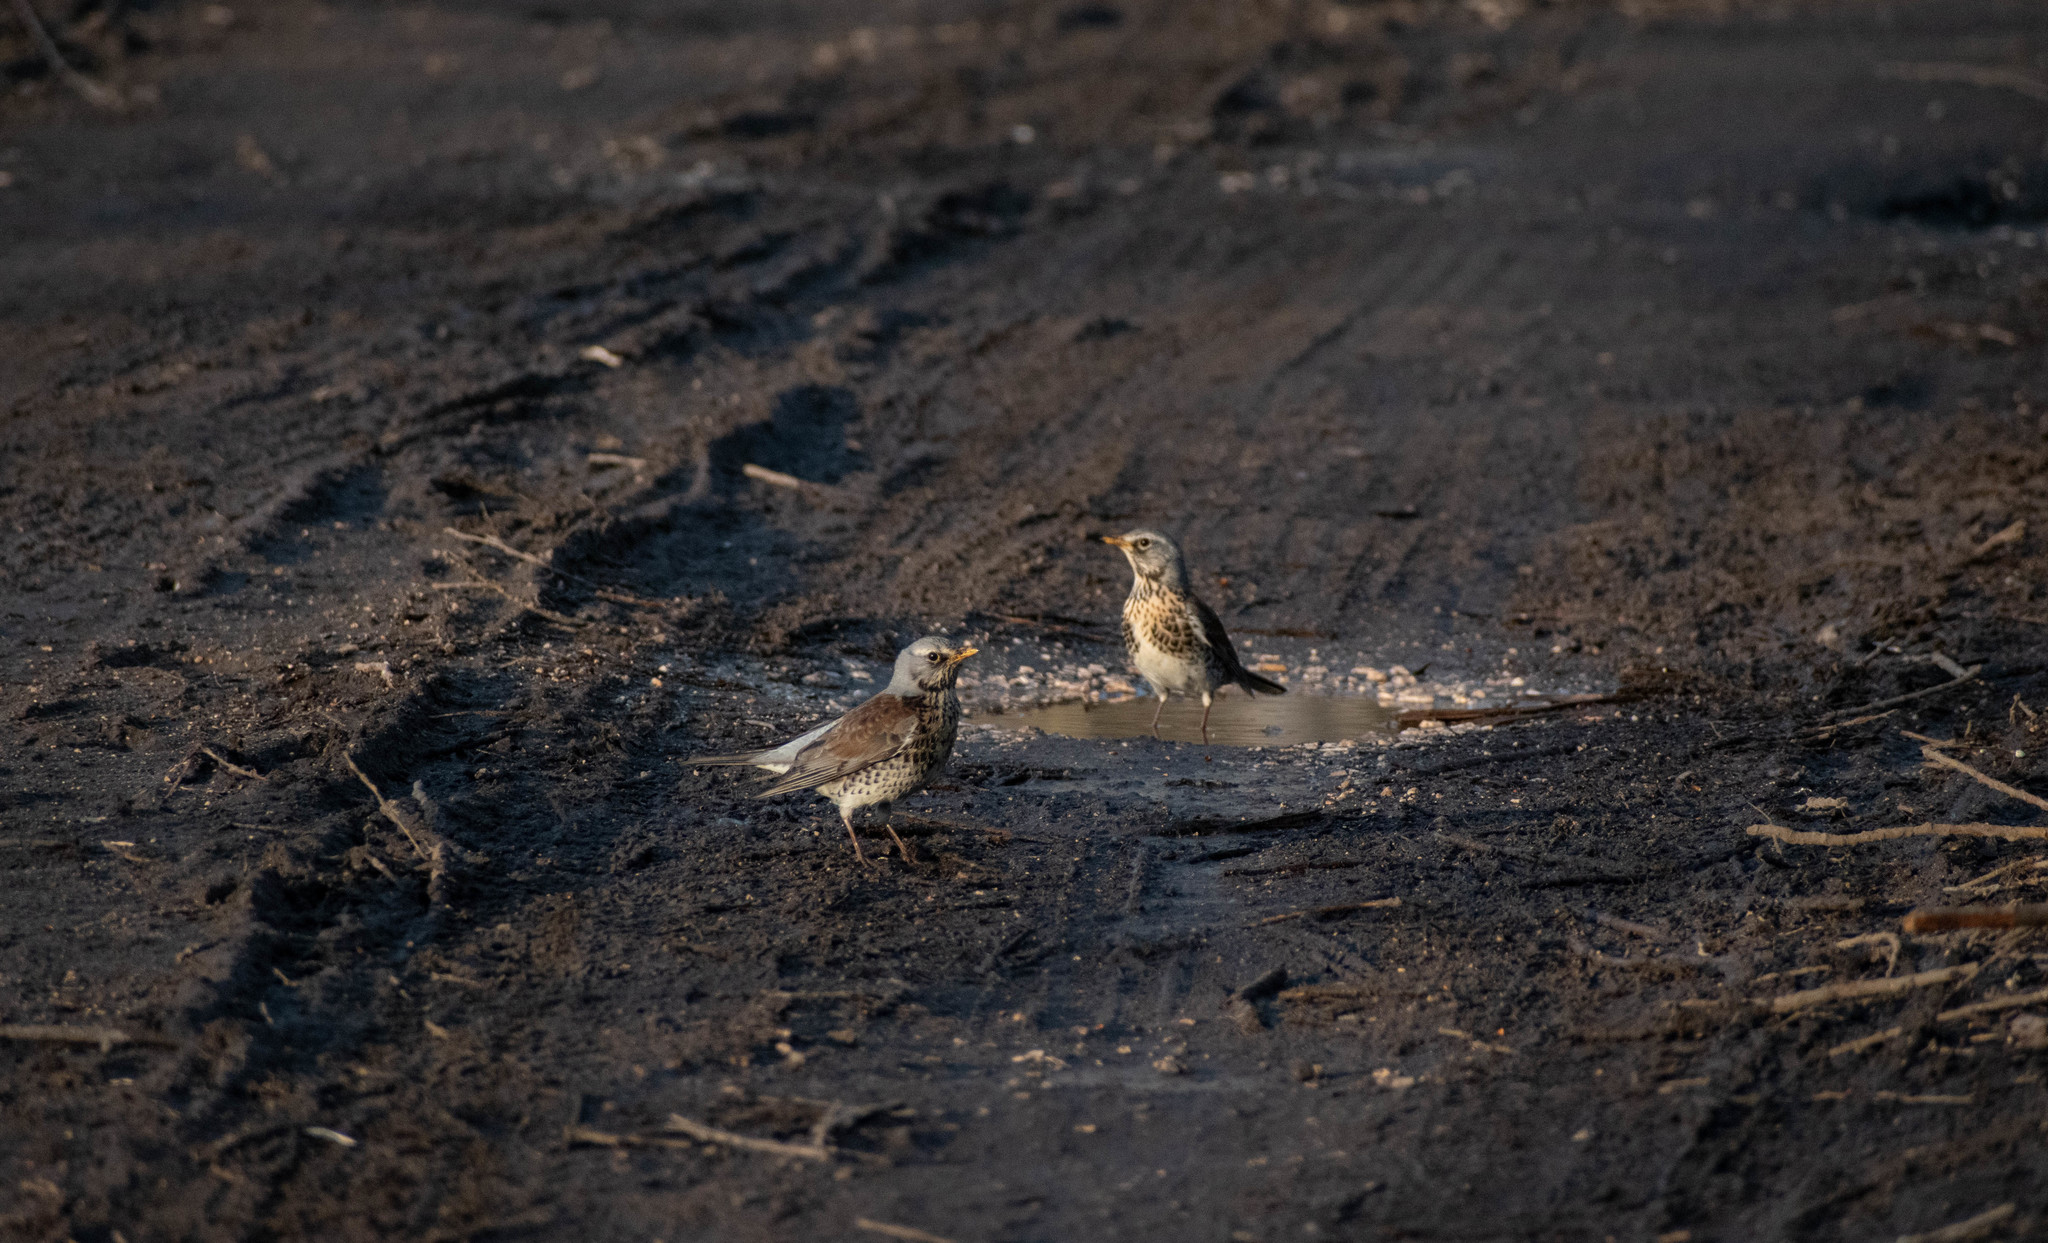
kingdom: Animalia
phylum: Chordata
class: Aves
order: Passeriformes
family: Turdidae
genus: Turdus
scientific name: Turdus pilaris
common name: Fieldfare
